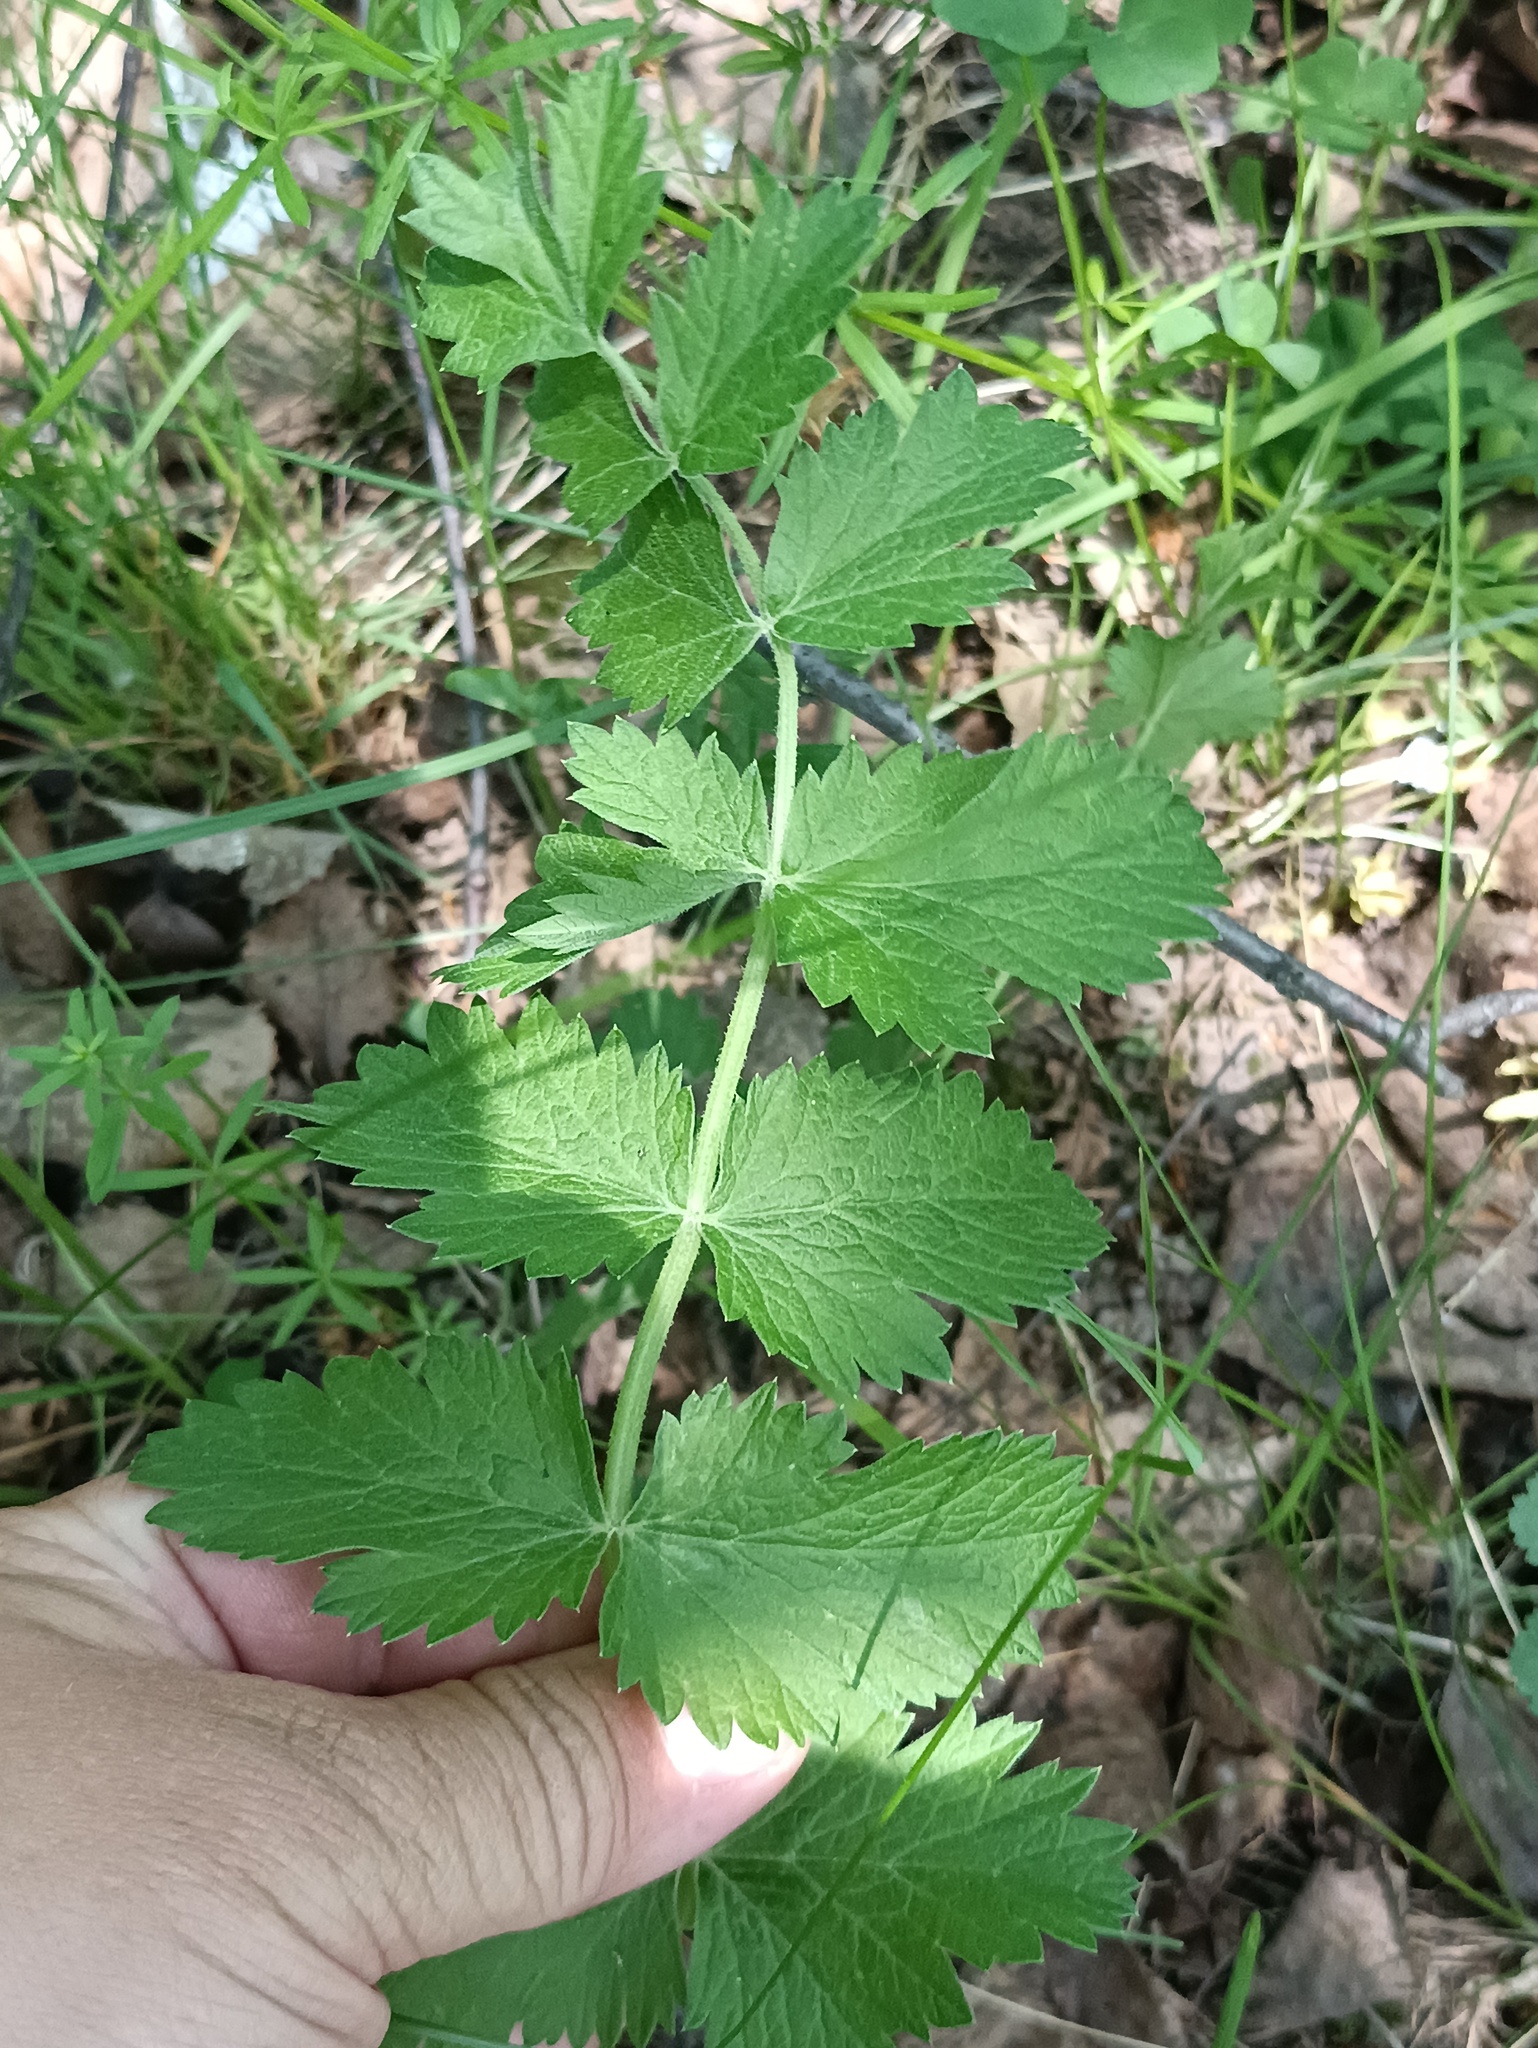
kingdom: Plantae
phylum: Tracheophyta
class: Magnoliopsida
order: Apiales
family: Apiaceae
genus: Pimpinella
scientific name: Pimpinella saxifraga
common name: Burnet-saxifrage
